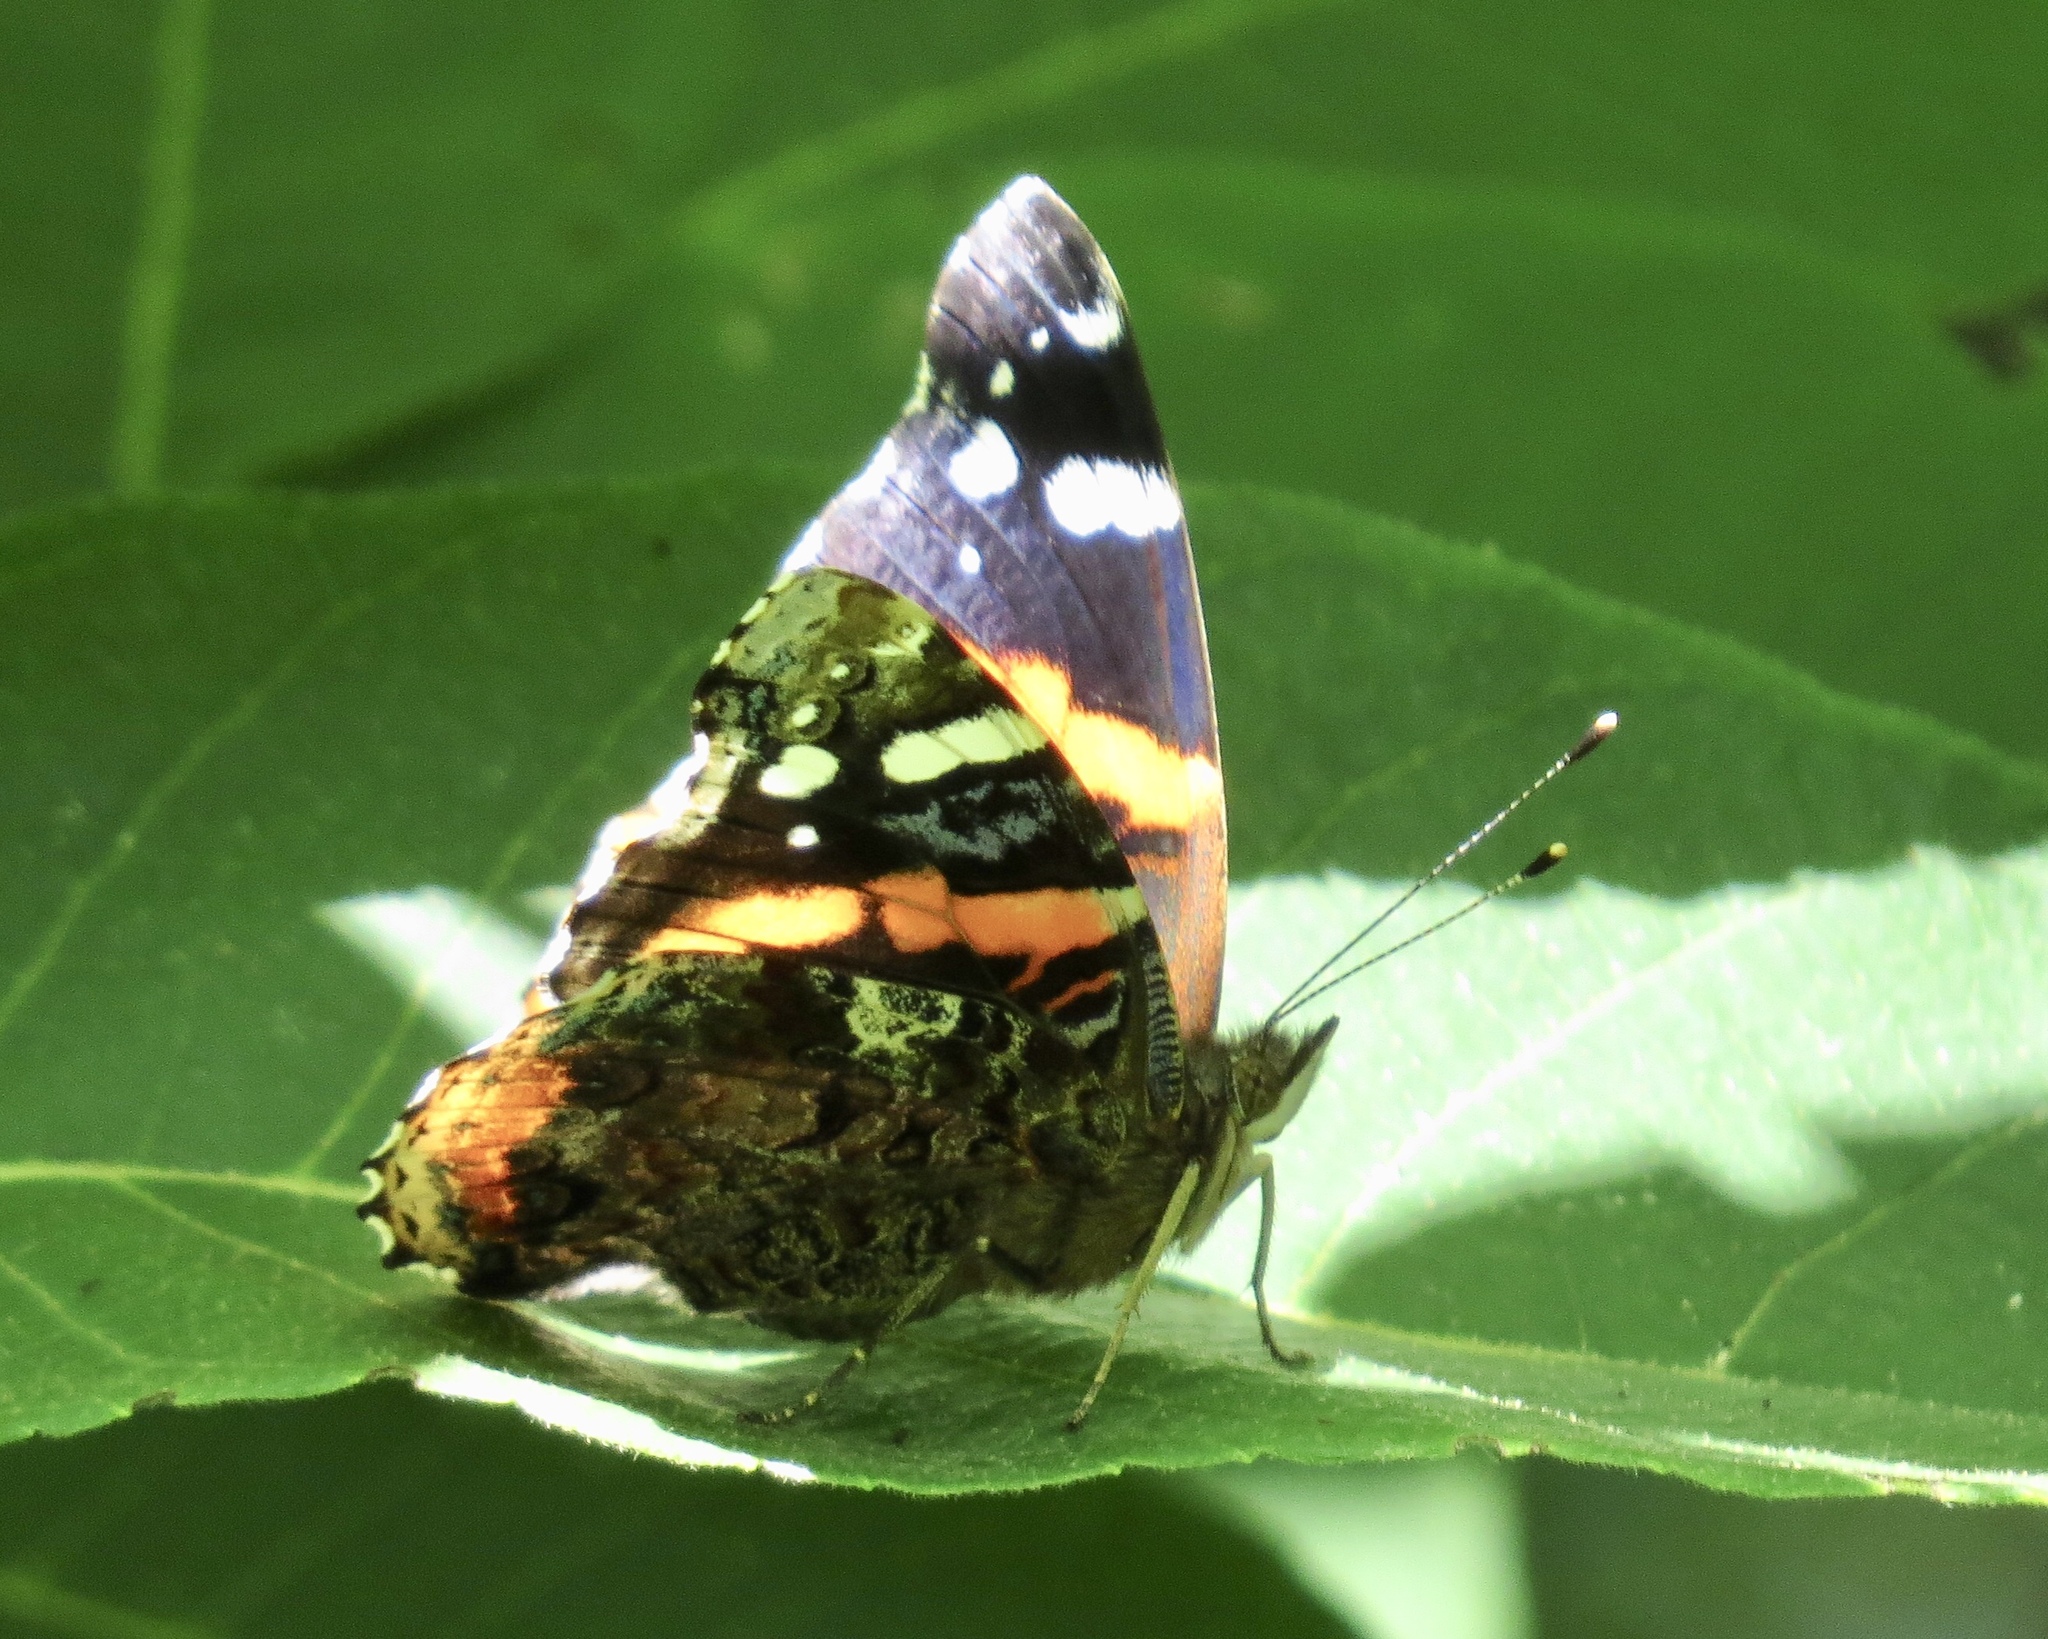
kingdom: Animalia
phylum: Arthropoda
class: Insecta
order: Lepidoptera
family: Nymphalidae
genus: Vanessa
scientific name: Vanessa atalanta
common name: Red admiral
